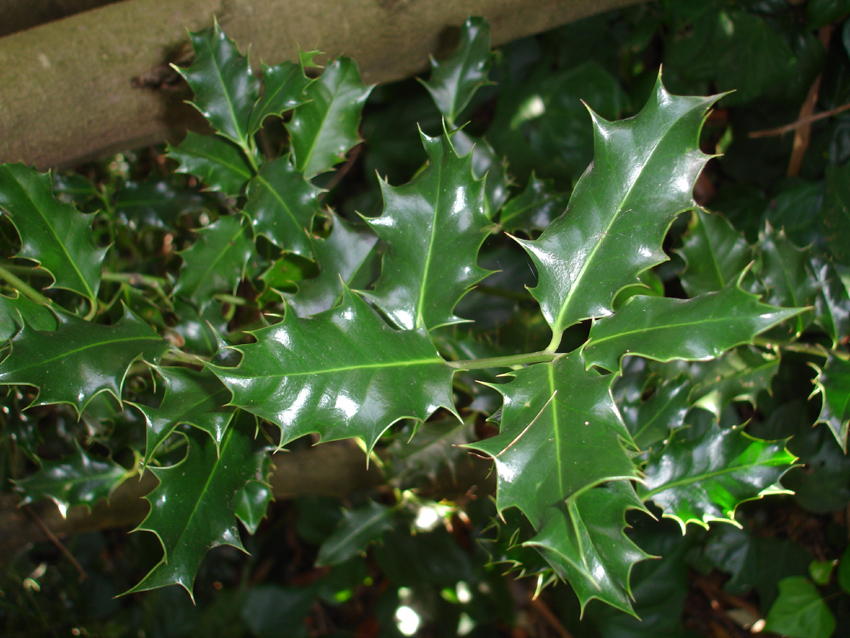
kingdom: Plantae
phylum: Tracheophyta
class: Magnoliopsida
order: Aquifoliales
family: Aquifoliaceae
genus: Ilex
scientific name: Ilex aquifolium
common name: English holly
